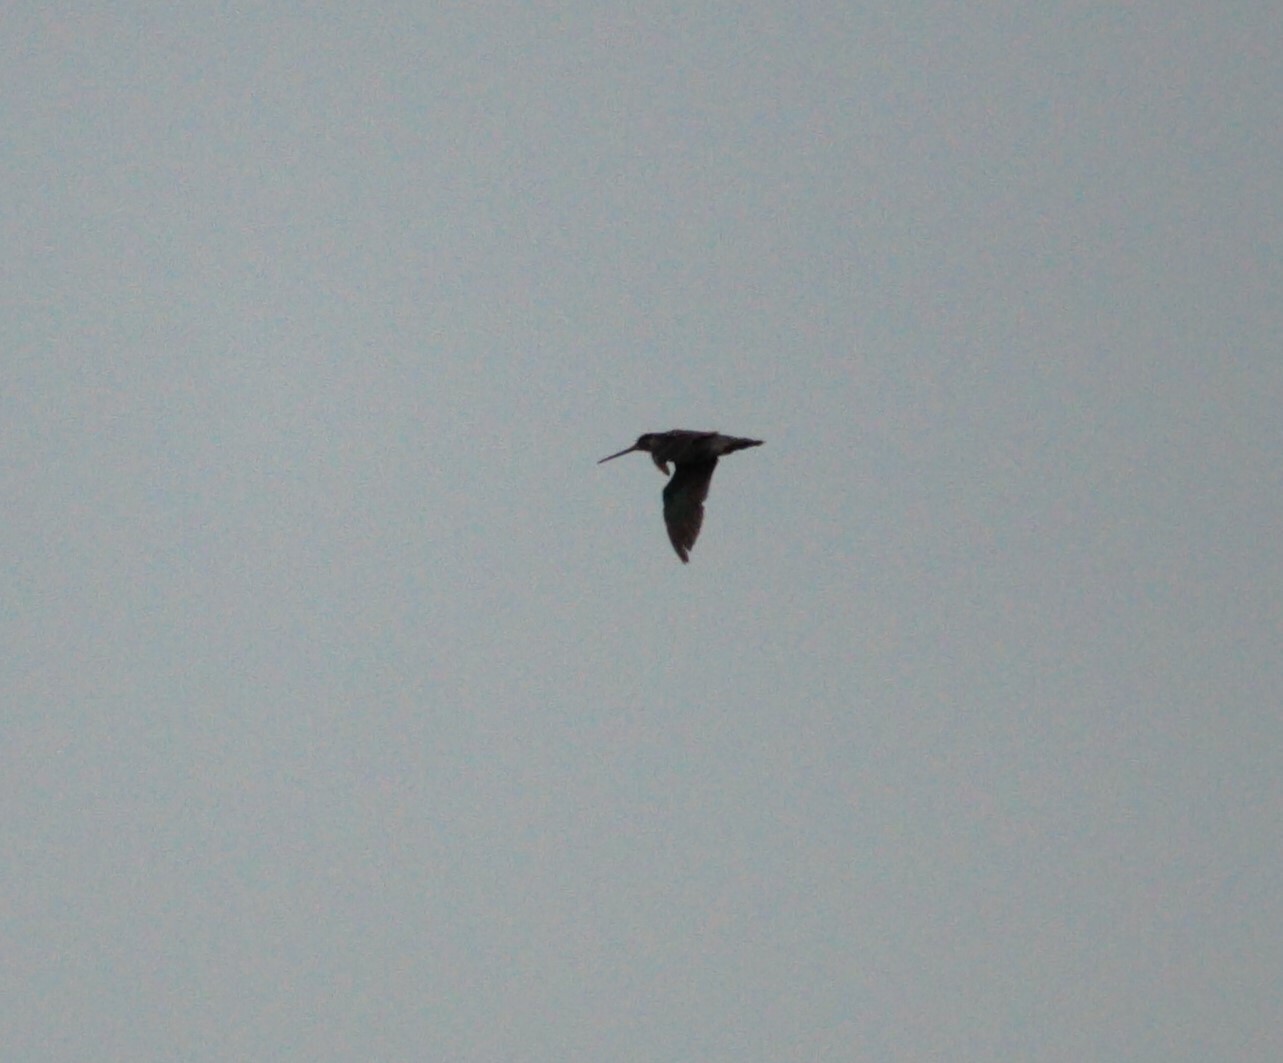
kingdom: Animalia
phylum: Chordata
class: Aves
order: Charadriiformes
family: Scolopacidae
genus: Gallinago
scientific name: Gallinago hardwickii
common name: Latham's snipe
